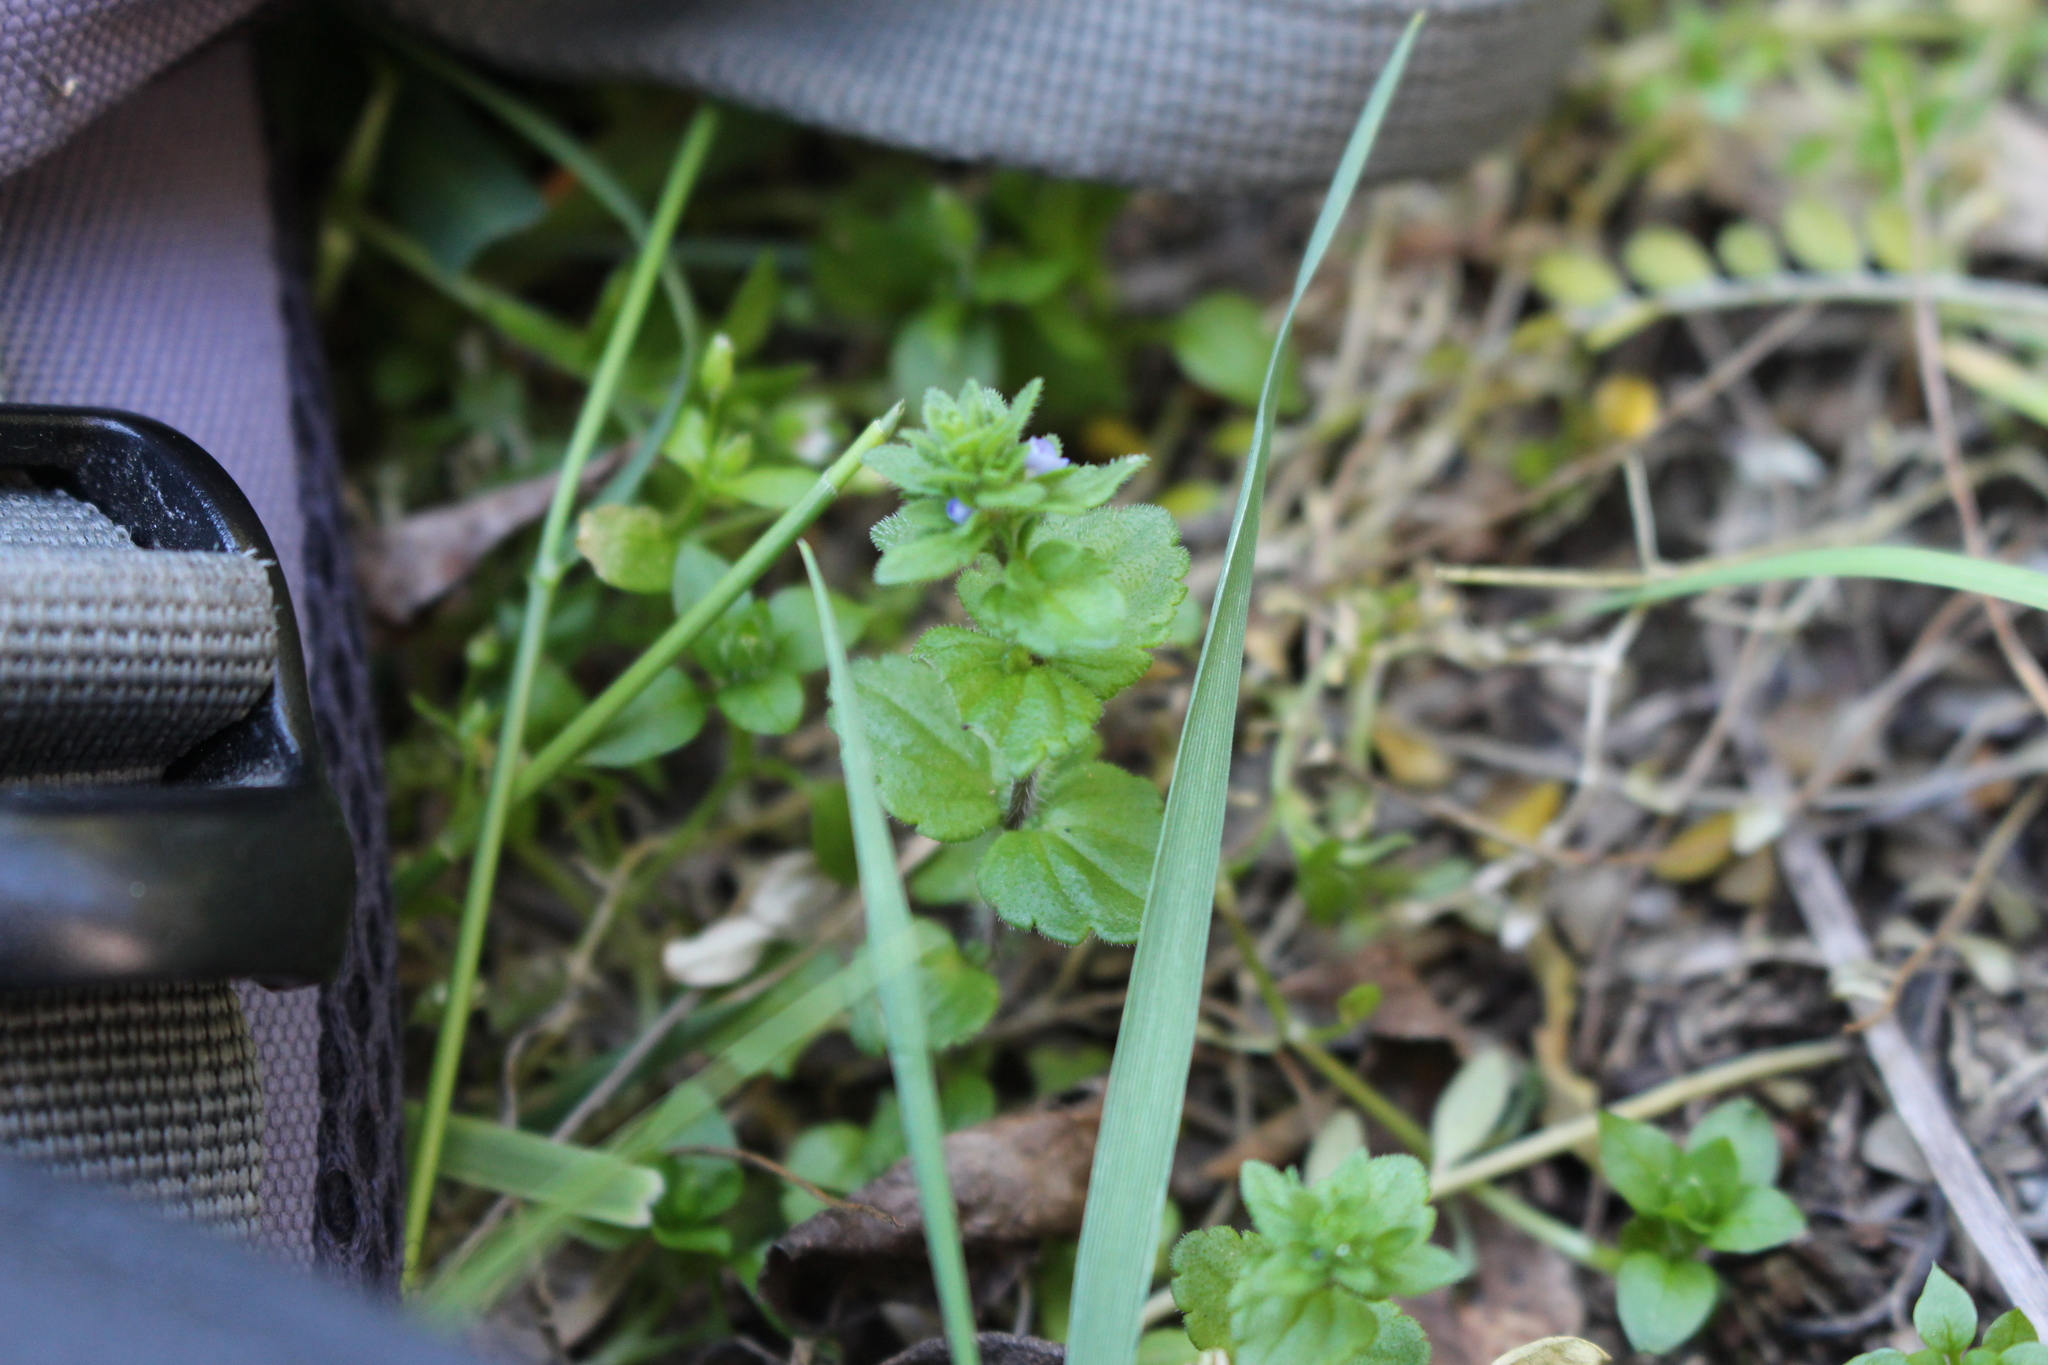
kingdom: Plantae
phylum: Tracheophyta
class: Magnoliopsida
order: Lamiales
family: Plantaginaceae
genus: Veronica
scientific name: Veronica arvensis
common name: Corn speedwell
